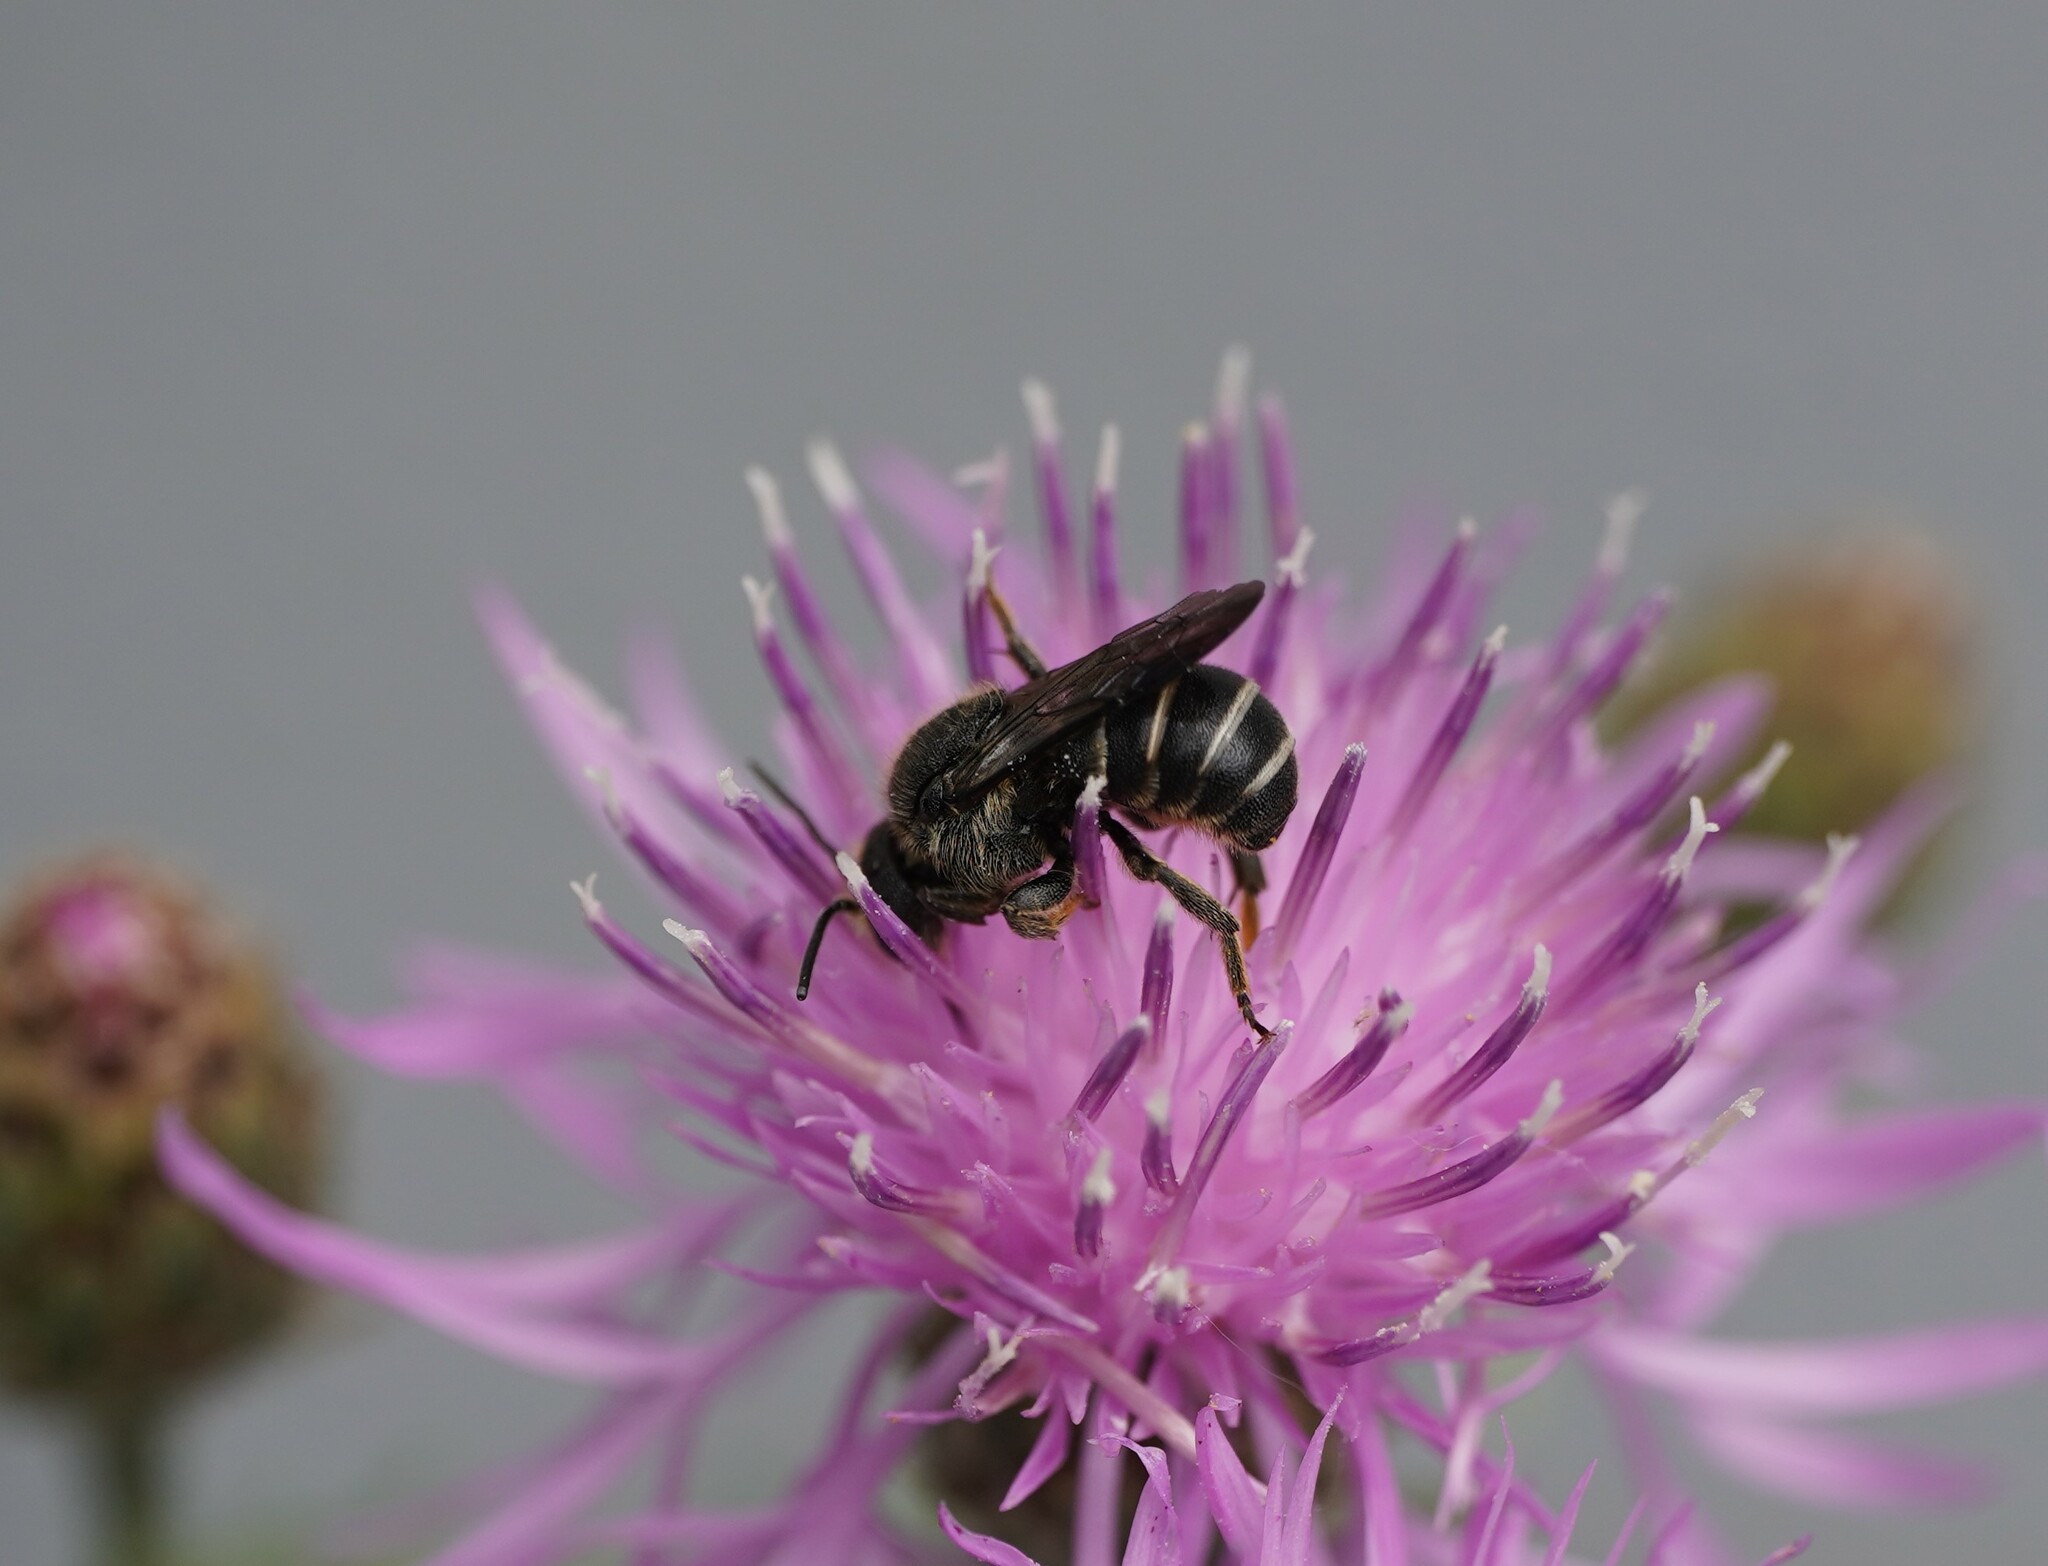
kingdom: Animalia
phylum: Arthropoda
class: Insecta
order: Hymenoptera
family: Megachilidae
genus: Stelis
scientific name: Stelis punctulatissima
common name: Banded dark bee
